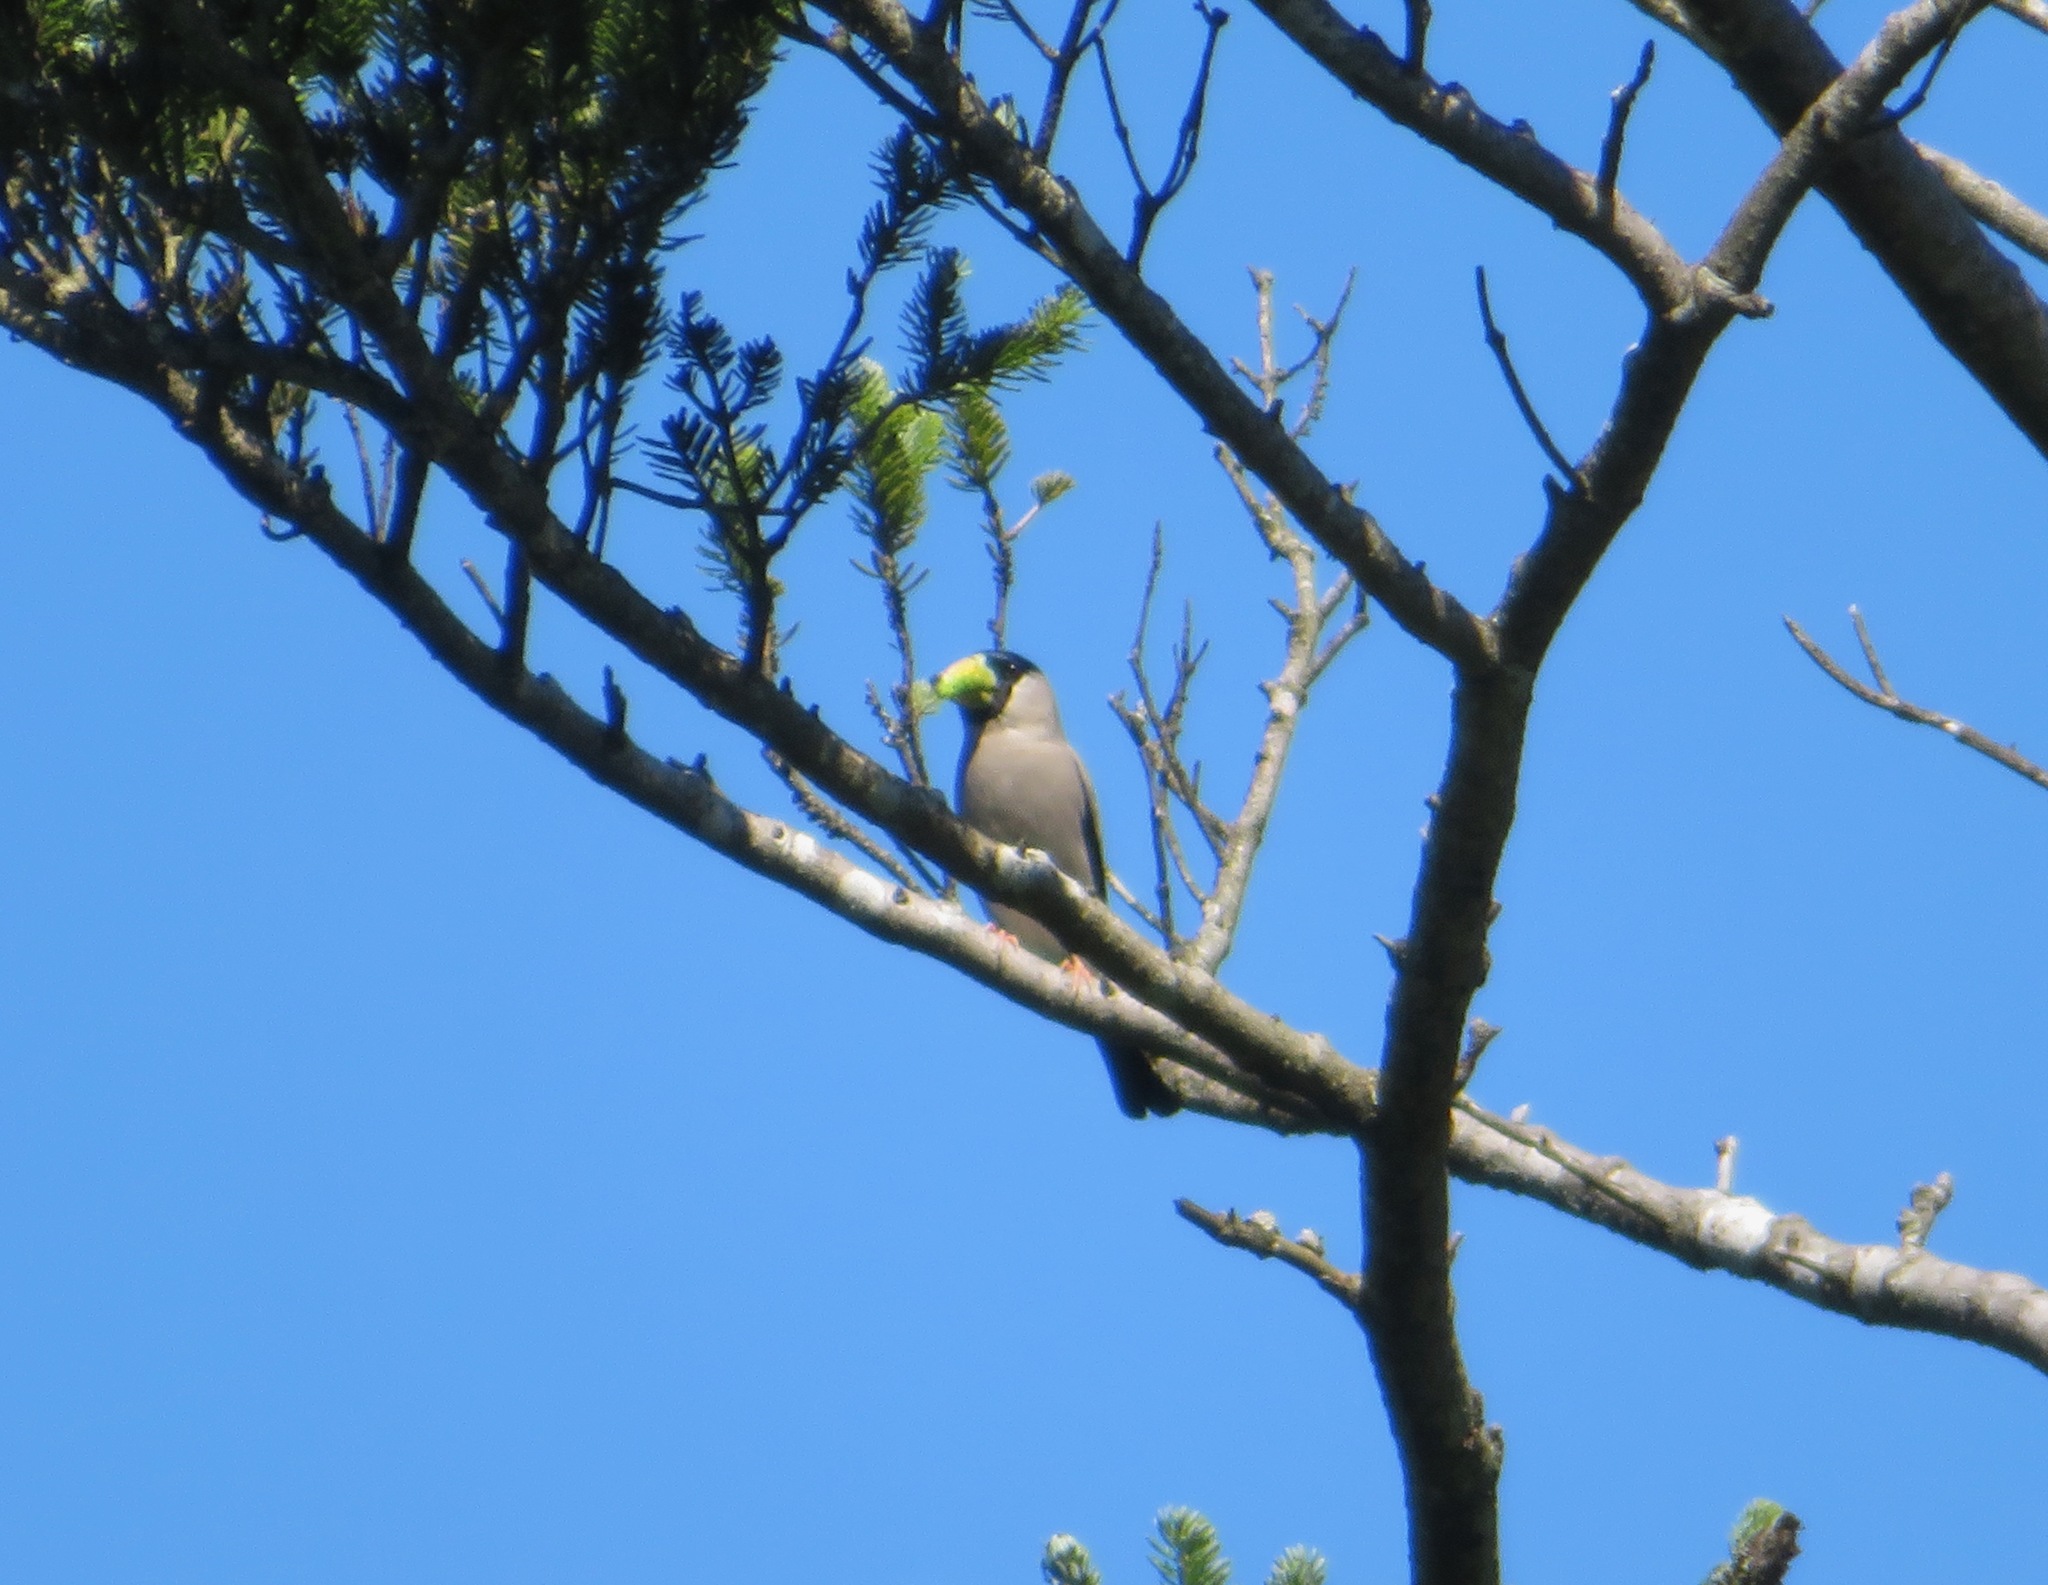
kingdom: Animalia
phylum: Chordata
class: Aves
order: Passeriformes
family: Fringillidae
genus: Eophona
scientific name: Eophona personata
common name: Japanese grosbeak
